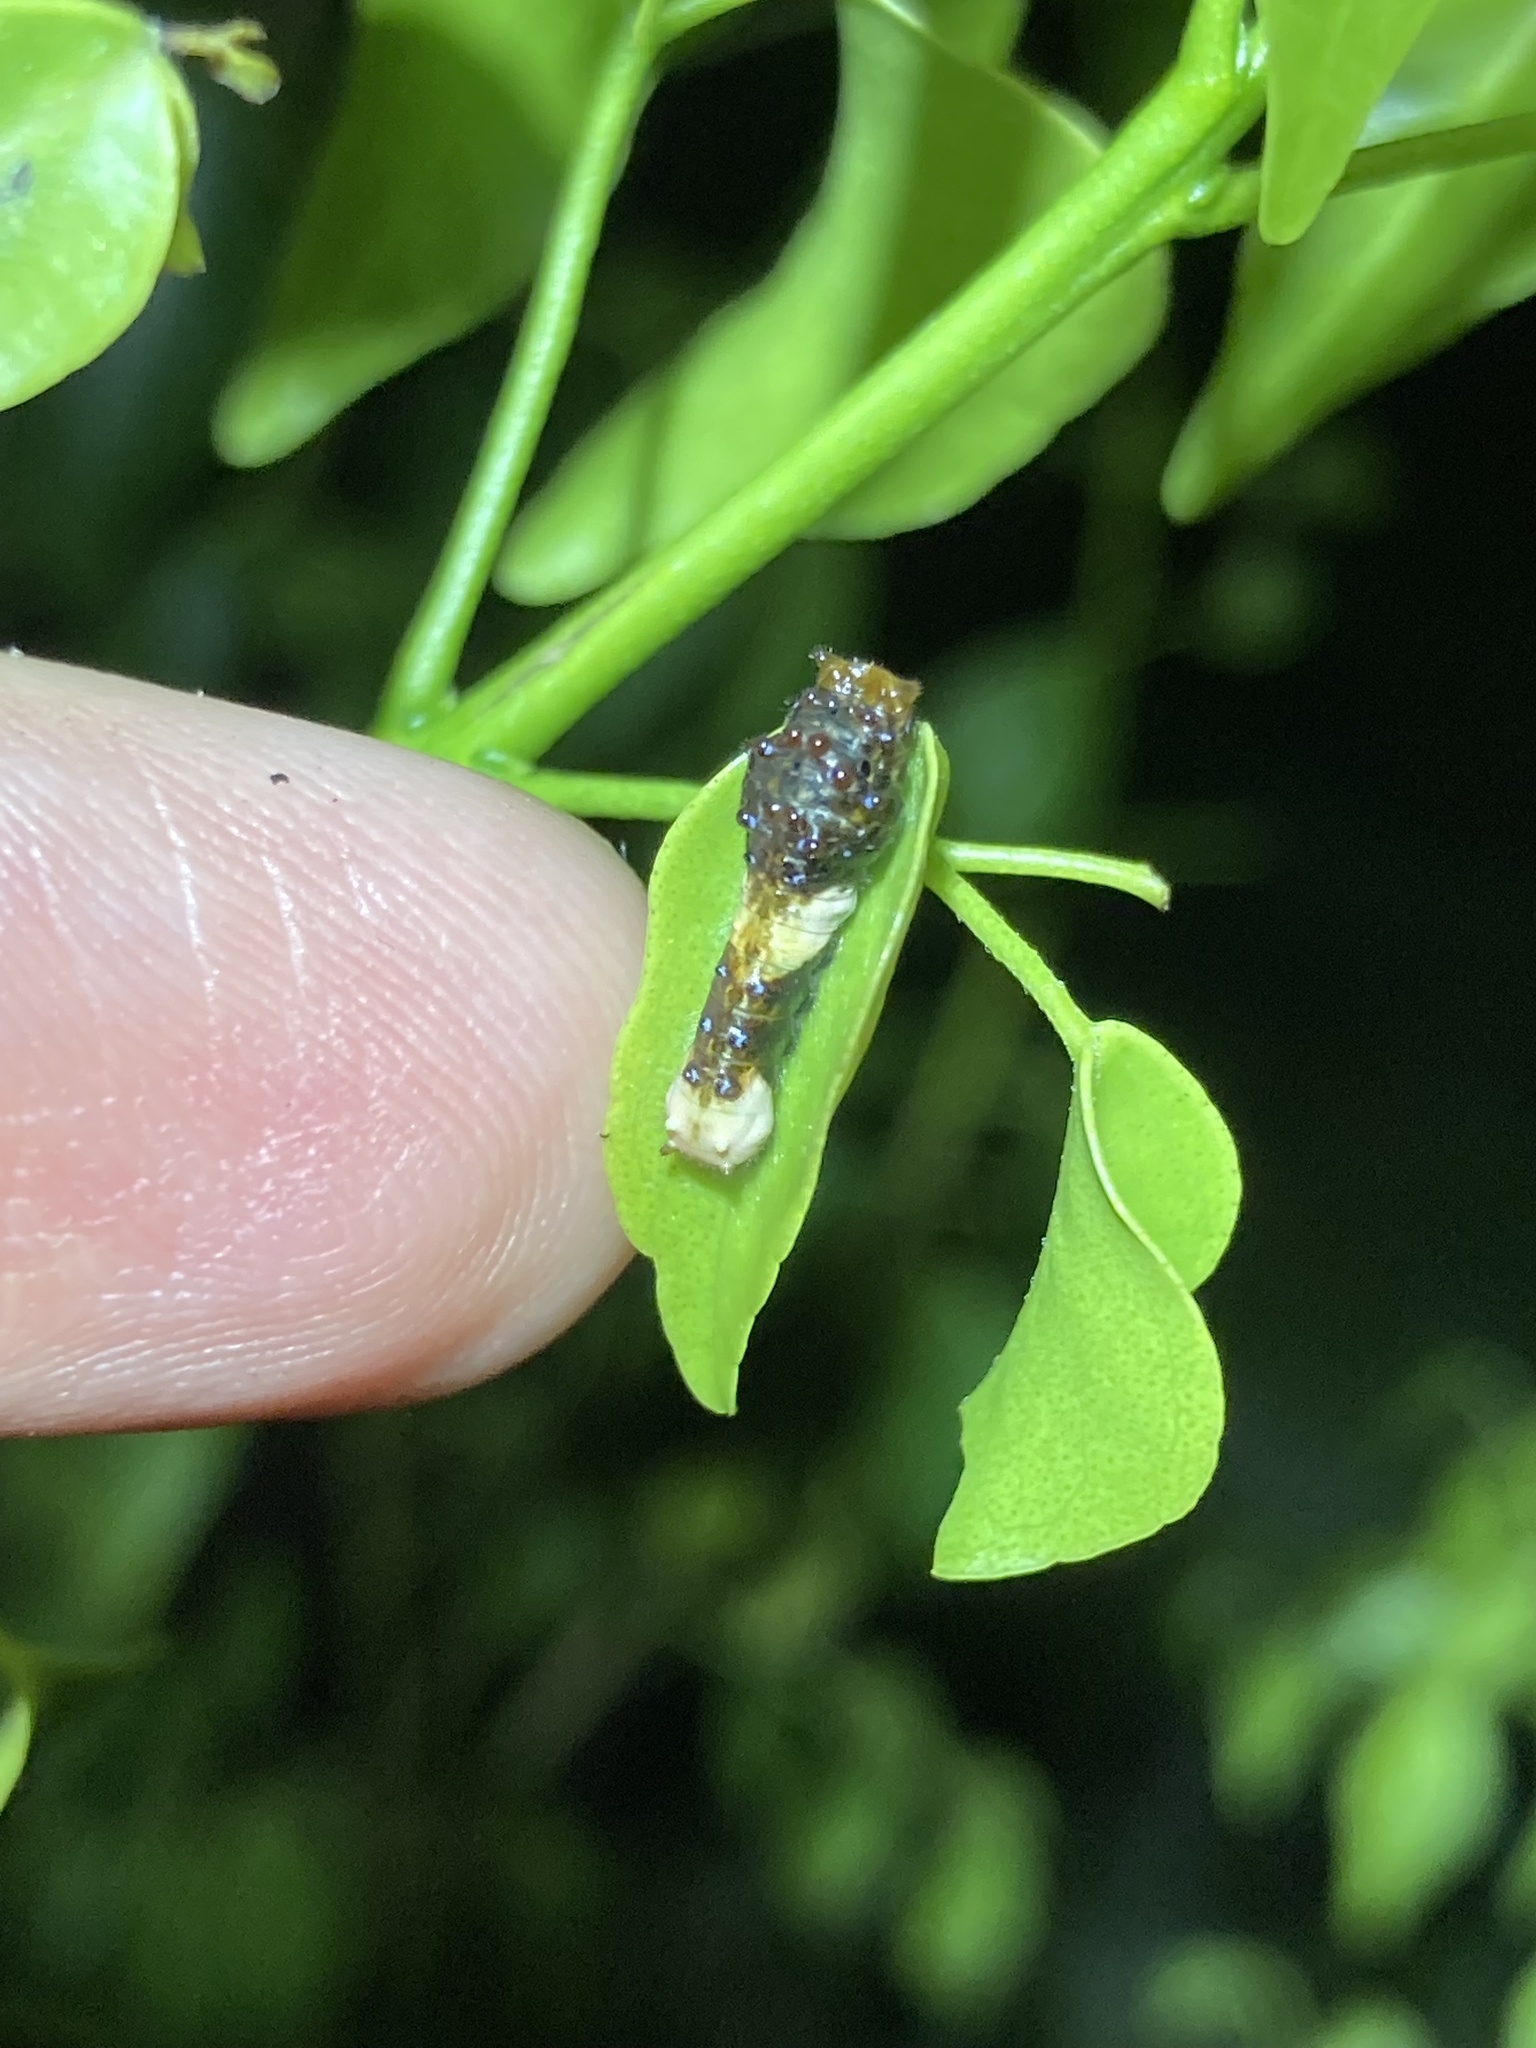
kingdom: Animalia
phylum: Arthropoda
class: Insecta
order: Lepidoptera
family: Papilionidae
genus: Papilio
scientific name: Papilio cresphontes
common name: Giant swallowtail
